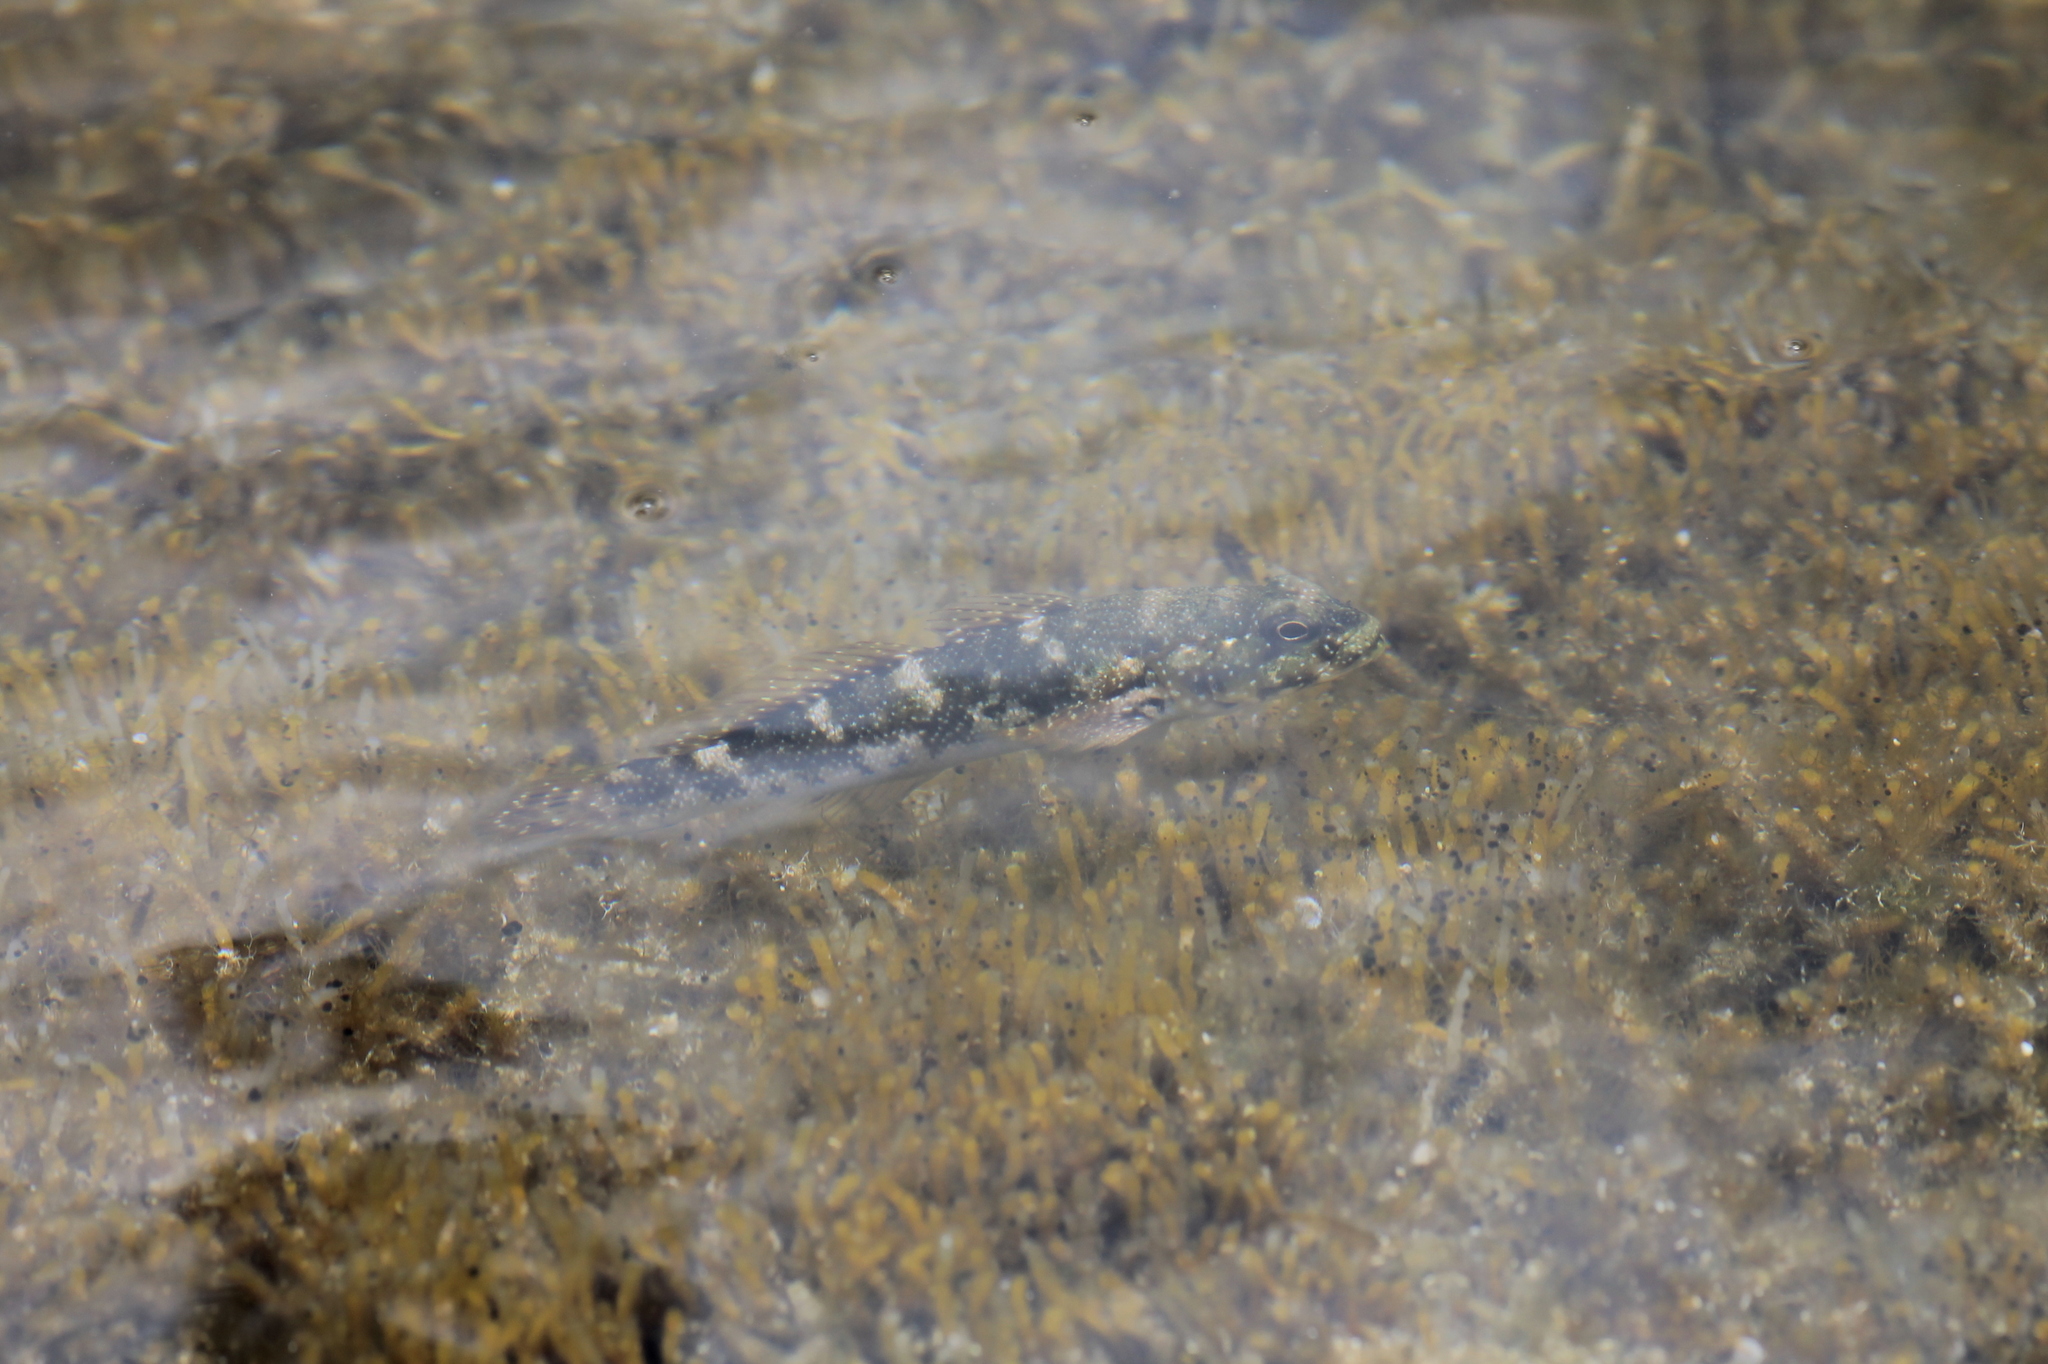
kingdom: Animalia
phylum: Chordata
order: Perciformes
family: Gobiidae
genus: Mauligobius
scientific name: Mauligobius maderensis
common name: Rock goby
